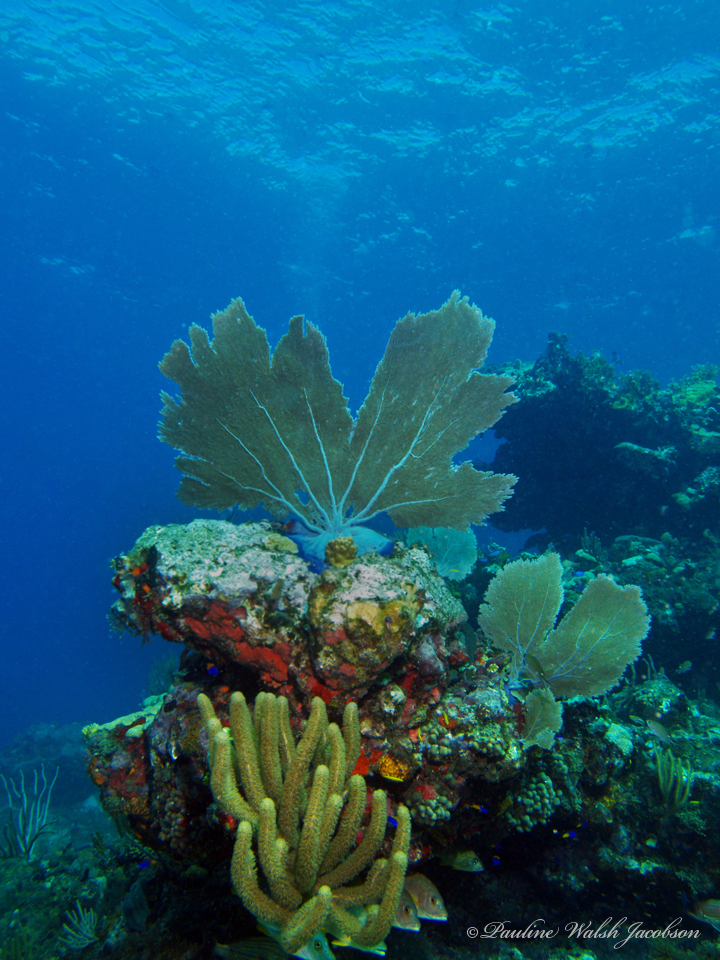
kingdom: Animalia
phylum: Cnidaria
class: Anthozoa
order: Malacalcyonacea
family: Gorgoniidae
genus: Gorgonia
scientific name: Gorgonia ventalina
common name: Common sea fan
